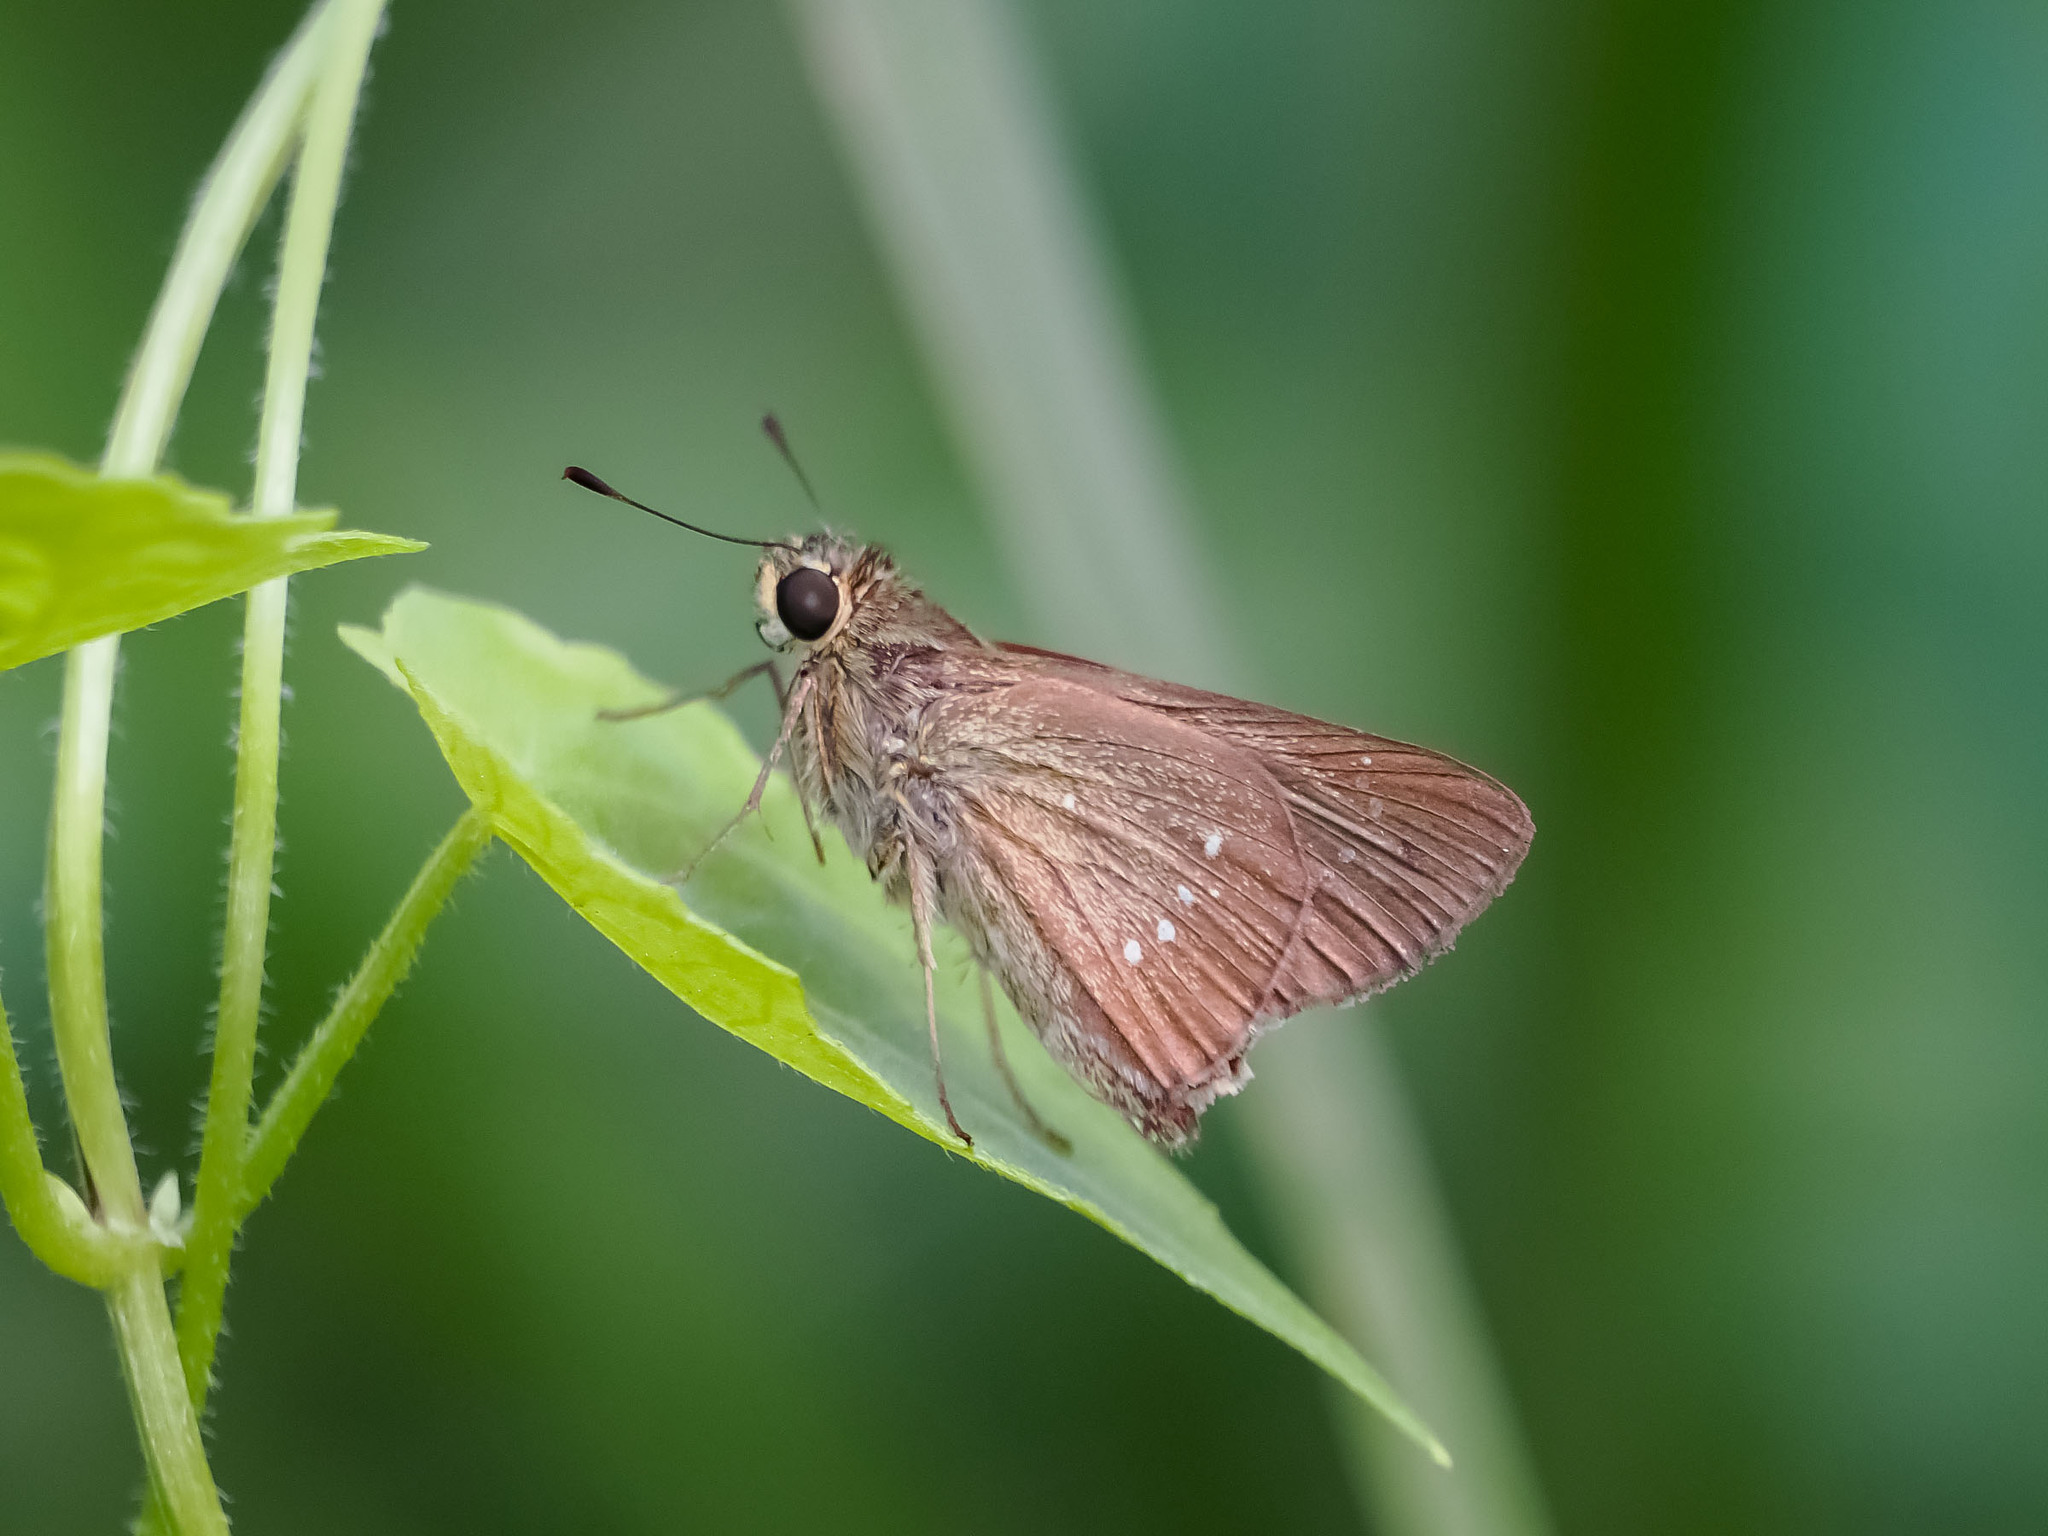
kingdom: Animalia
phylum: Arthropoda
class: Insecta
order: Lepidoptera
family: Hesperiidae
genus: Borbo
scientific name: Borbo cinnara
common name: Formosan swift
